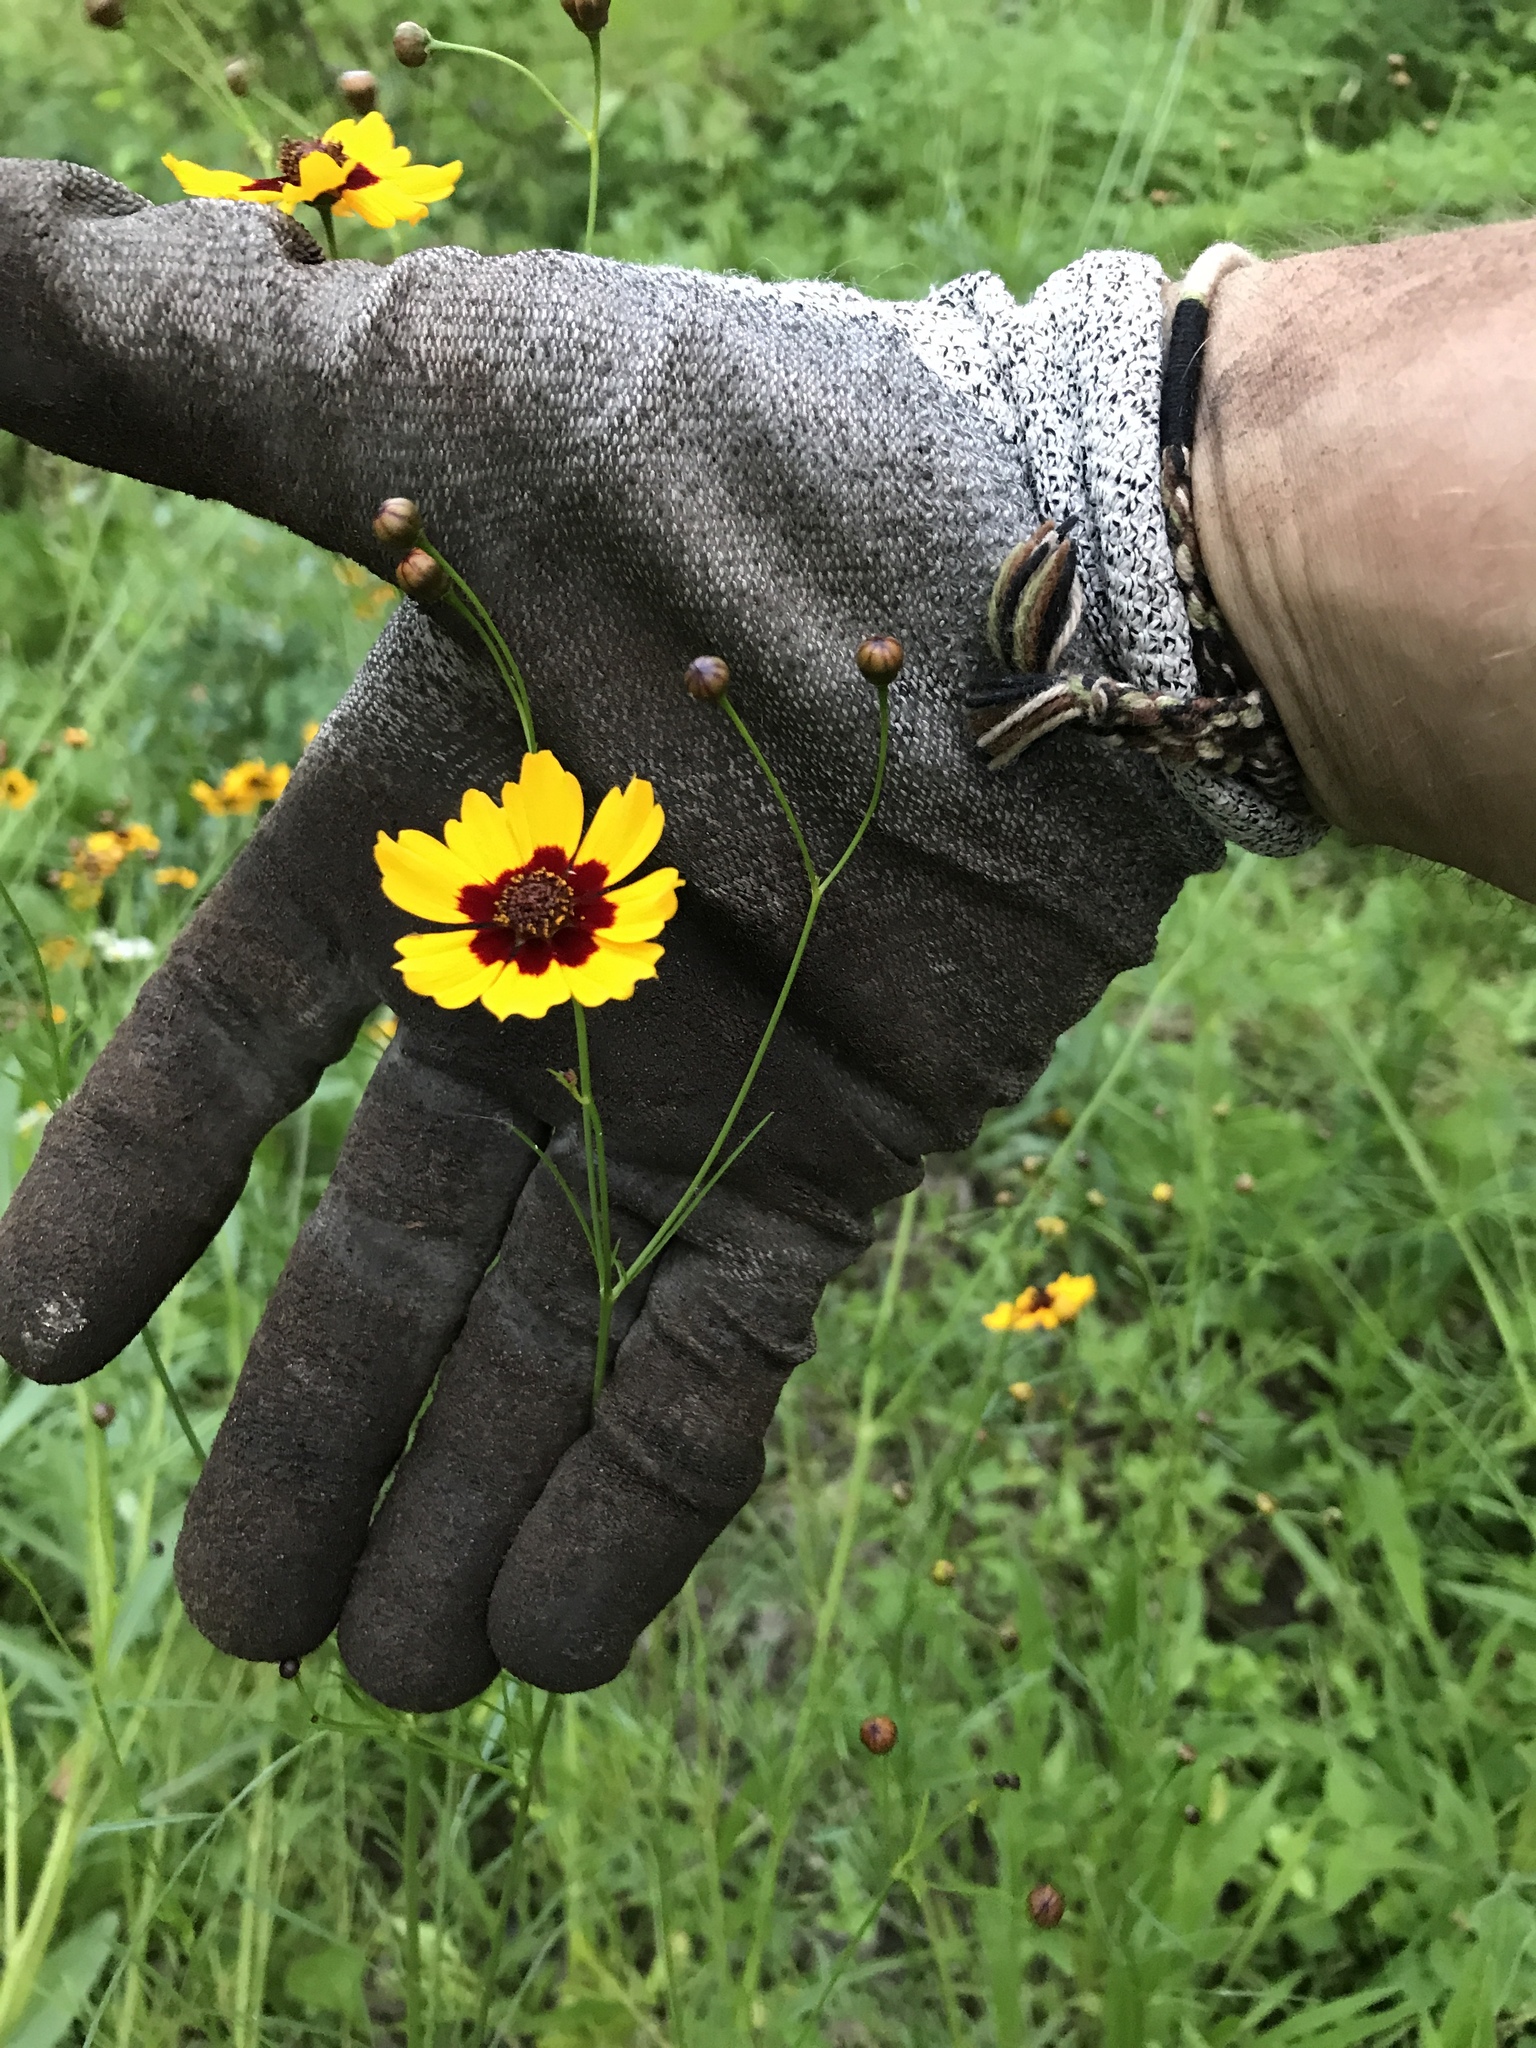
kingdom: Plantae
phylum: Tracheophyta
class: Magnoliopsida
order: Asterales
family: Asteraceae
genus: Coreopsis
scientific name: Coreopsis tinctoria
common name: Garden tickseed
